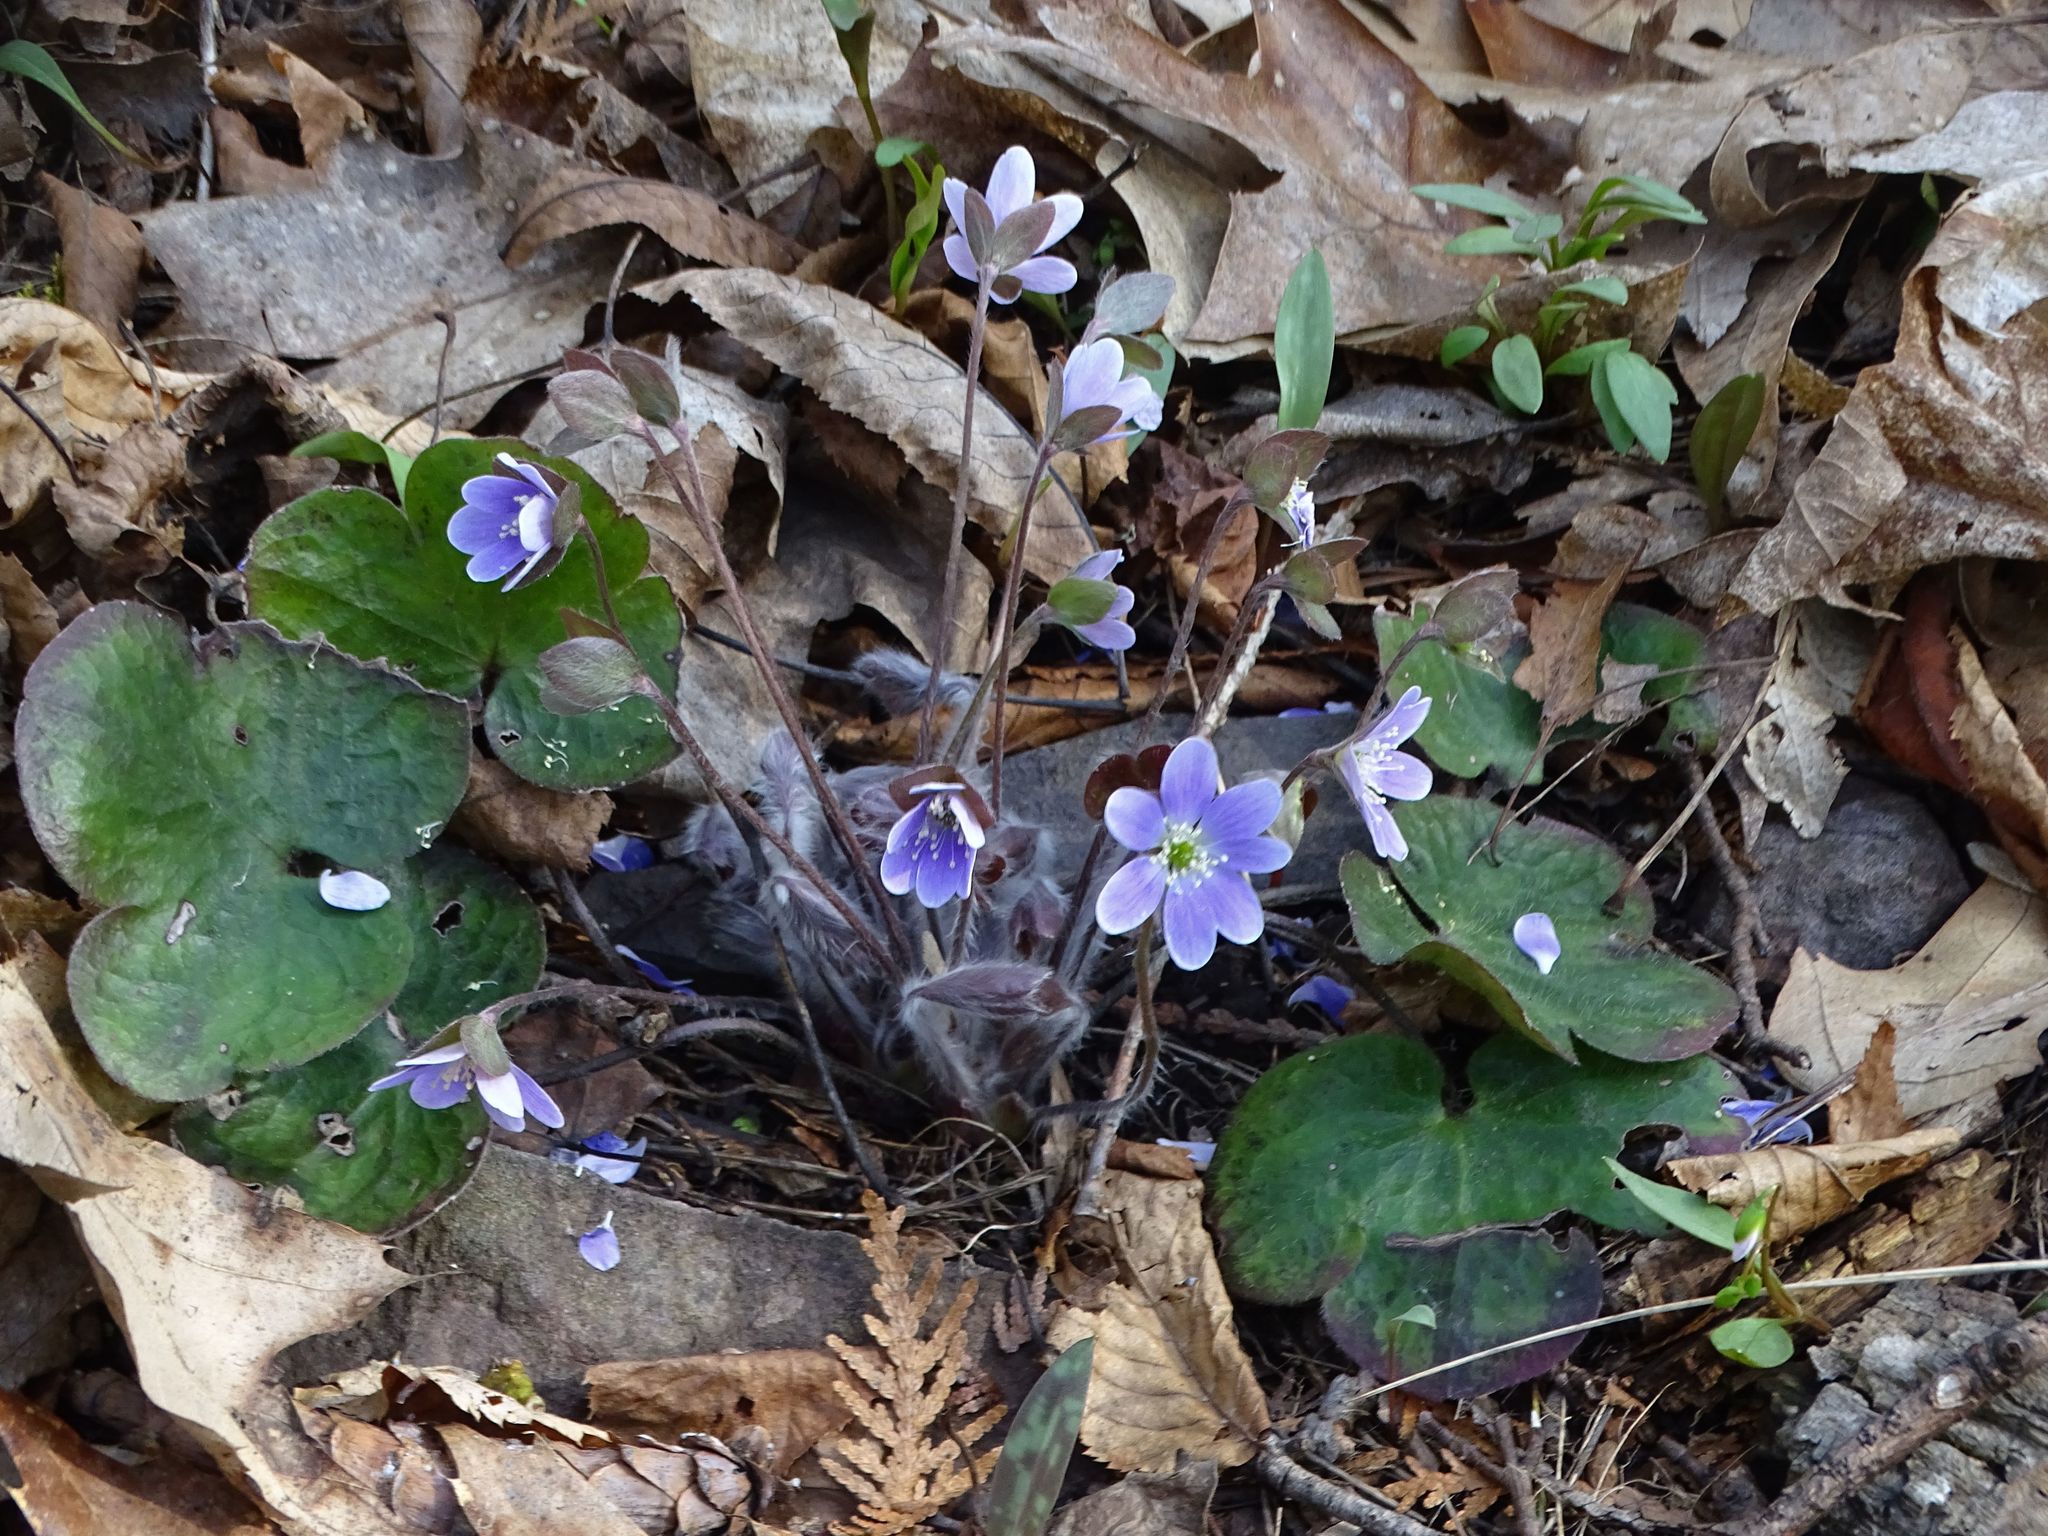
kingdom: Plantae
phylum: Tracheophyta
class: Magnoliopsida
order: Ranunculales
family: Ranunculaceae
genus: Hepatica
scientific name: Hepatica americana
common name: American hepatica
